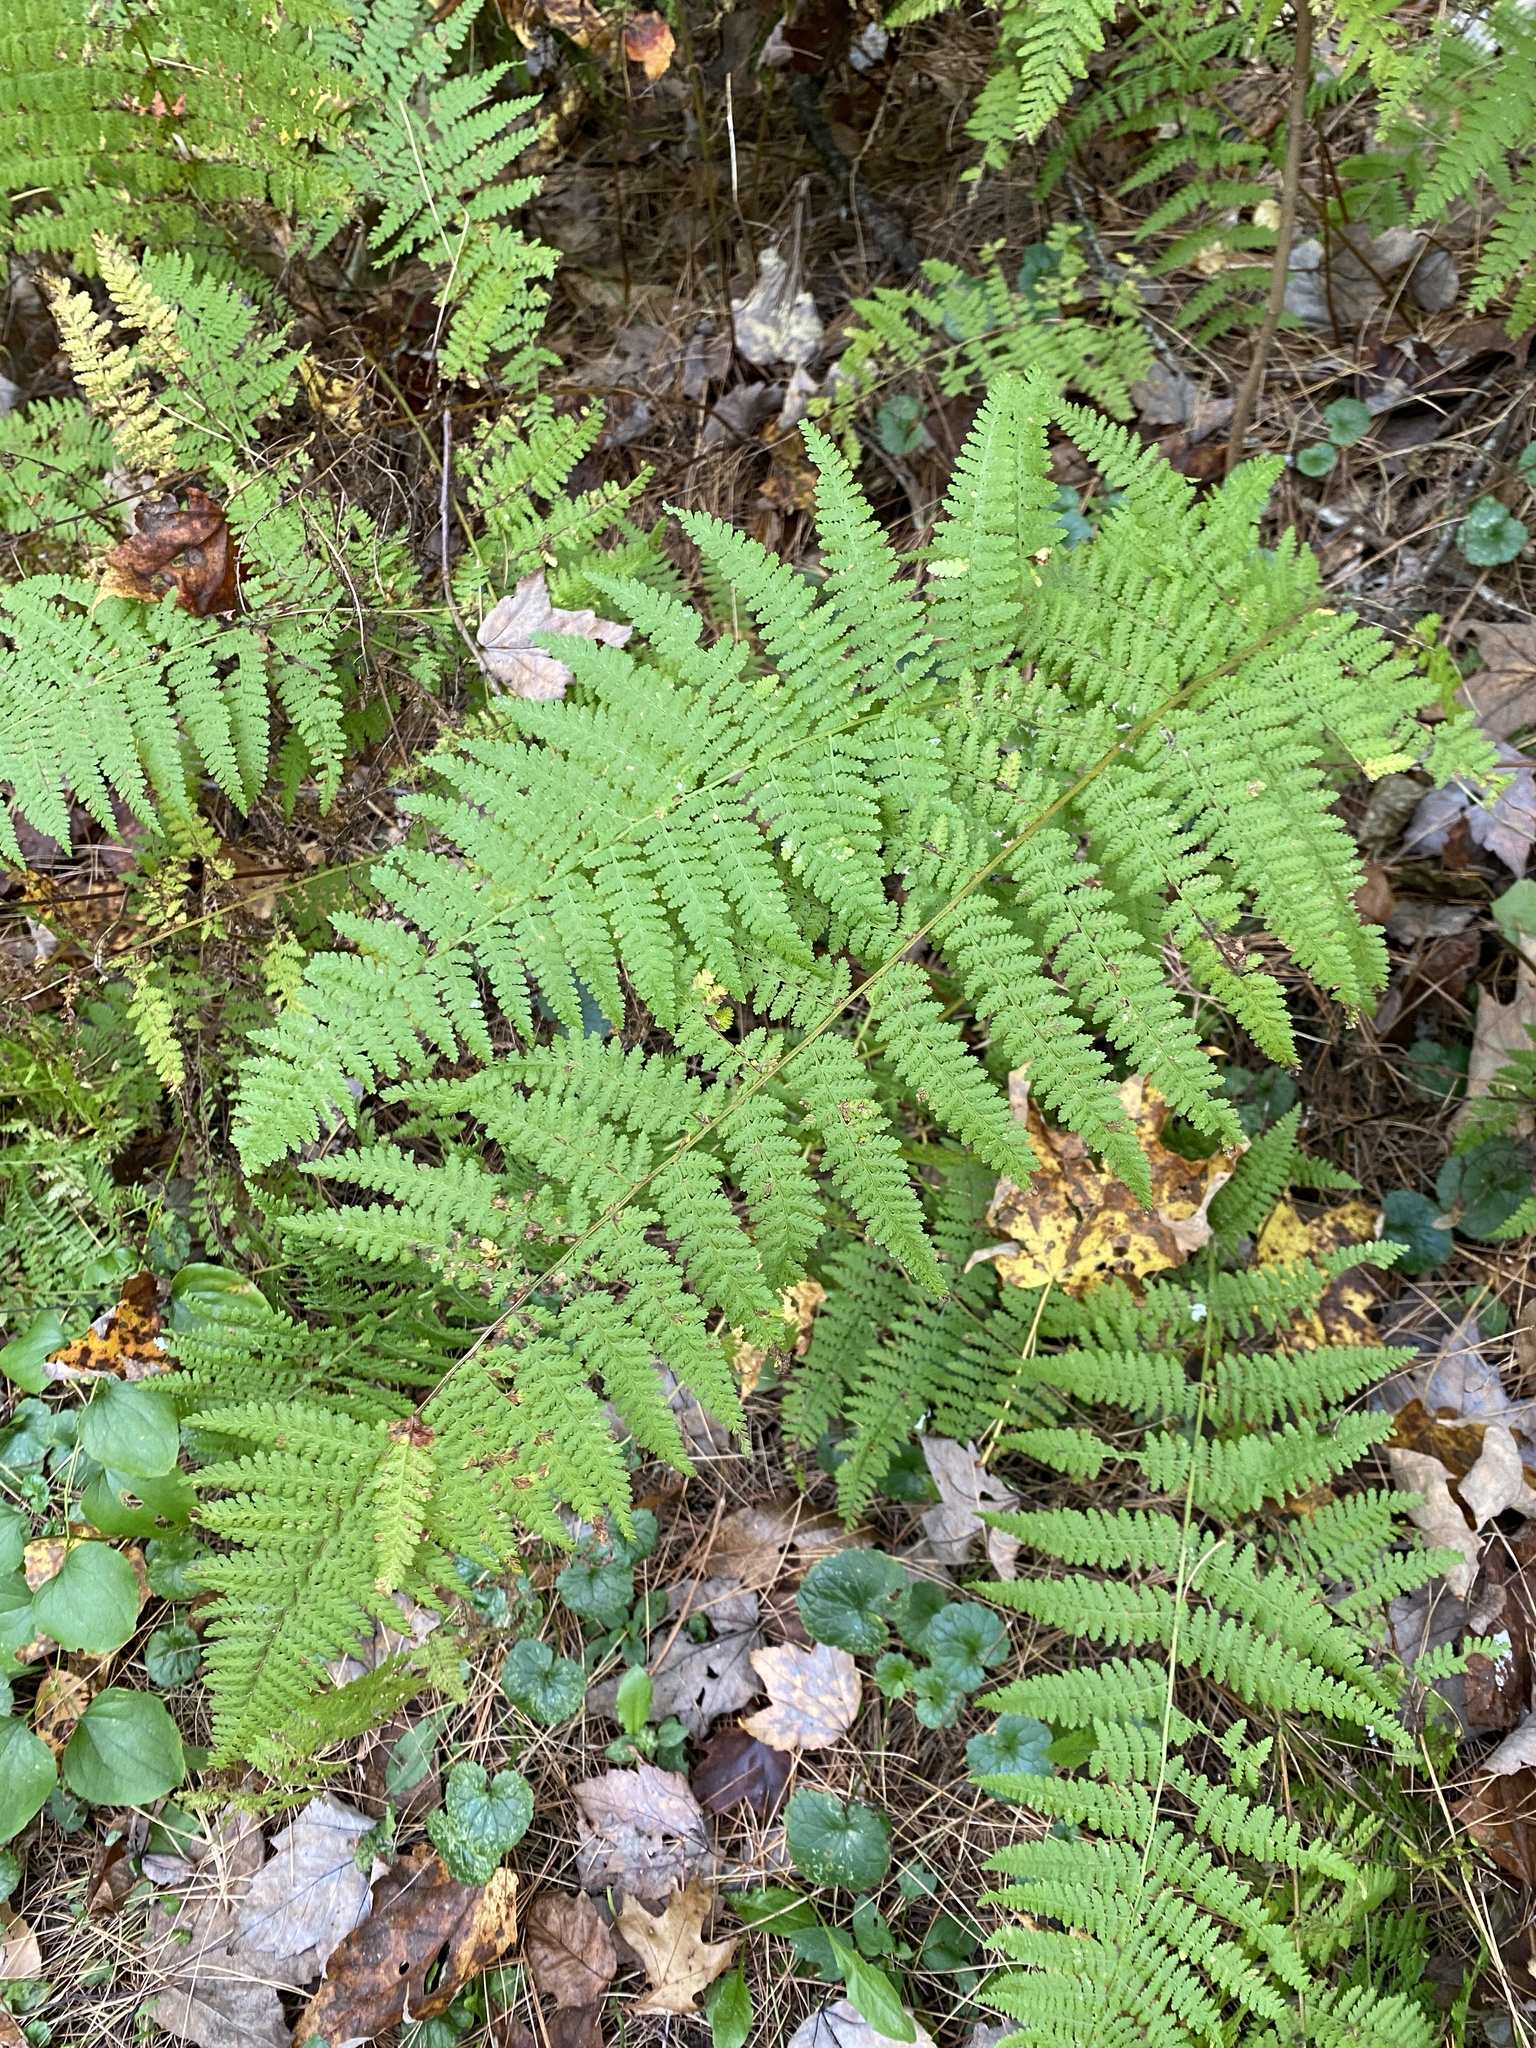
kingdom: Plantae
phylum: Tracheophyta
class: Polypodiopsida
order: Polypodiales
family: Dennstaedtiaceae
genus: Sitobolium
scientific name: Sitobolium punctilobum
